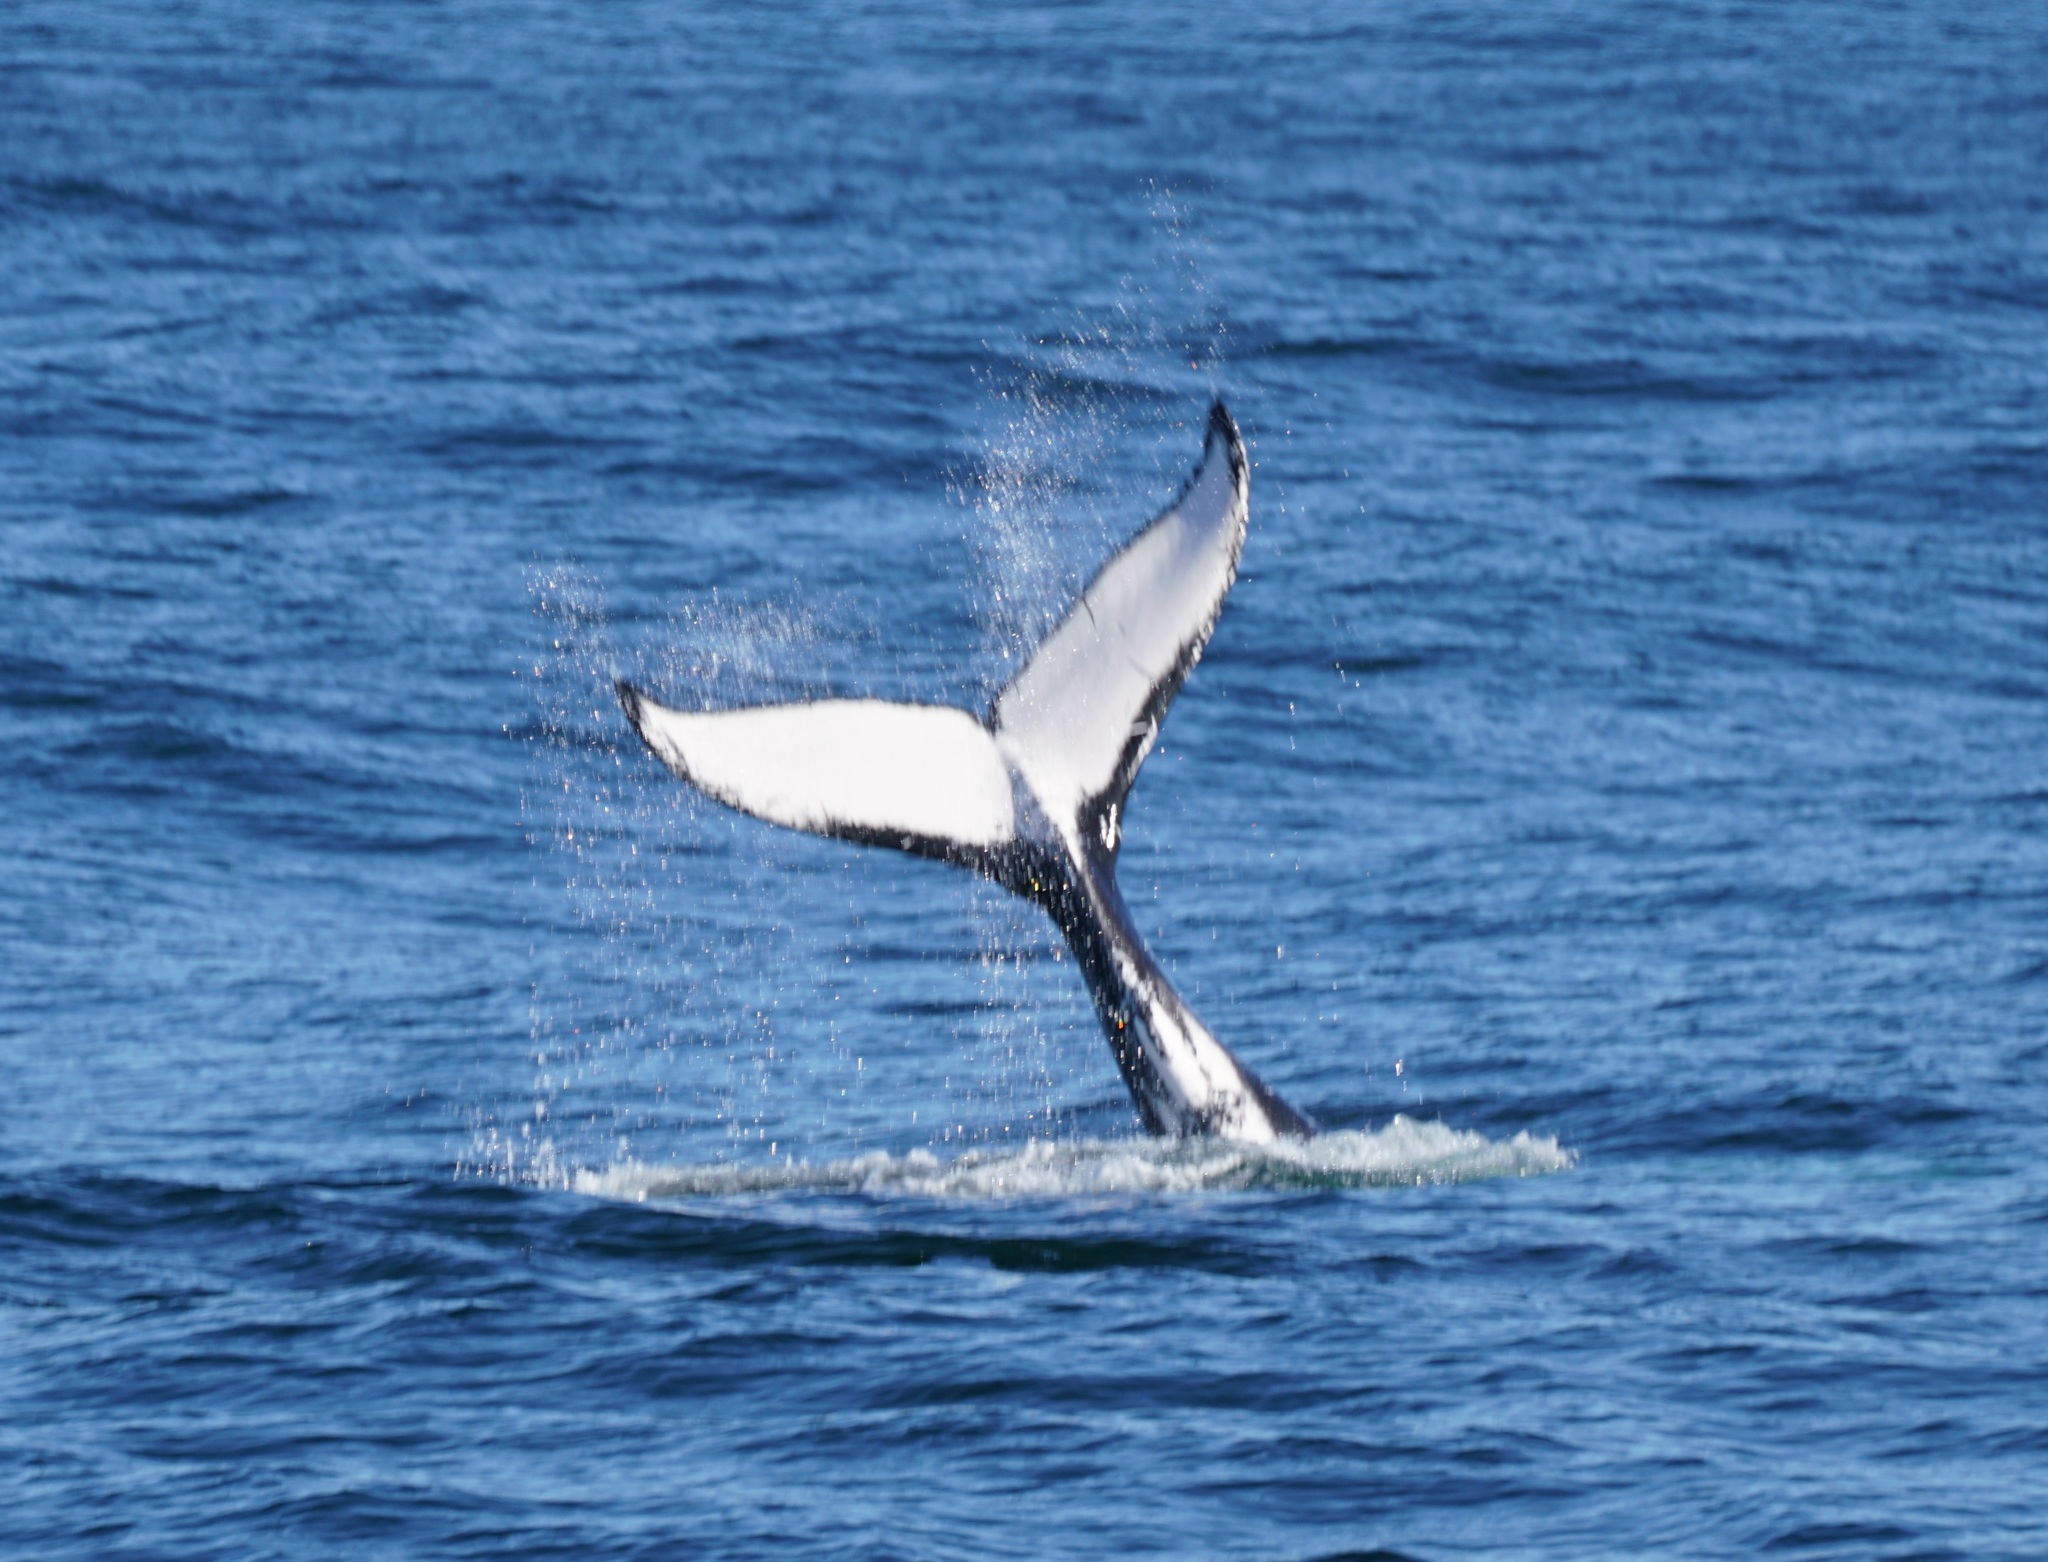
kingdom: Animalia
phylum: Chordata
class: Mammalia
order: Cetacea
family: Balaenopteridae
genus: Megaptera
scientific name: Megaptera novaeangliae
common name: Humpback whale
